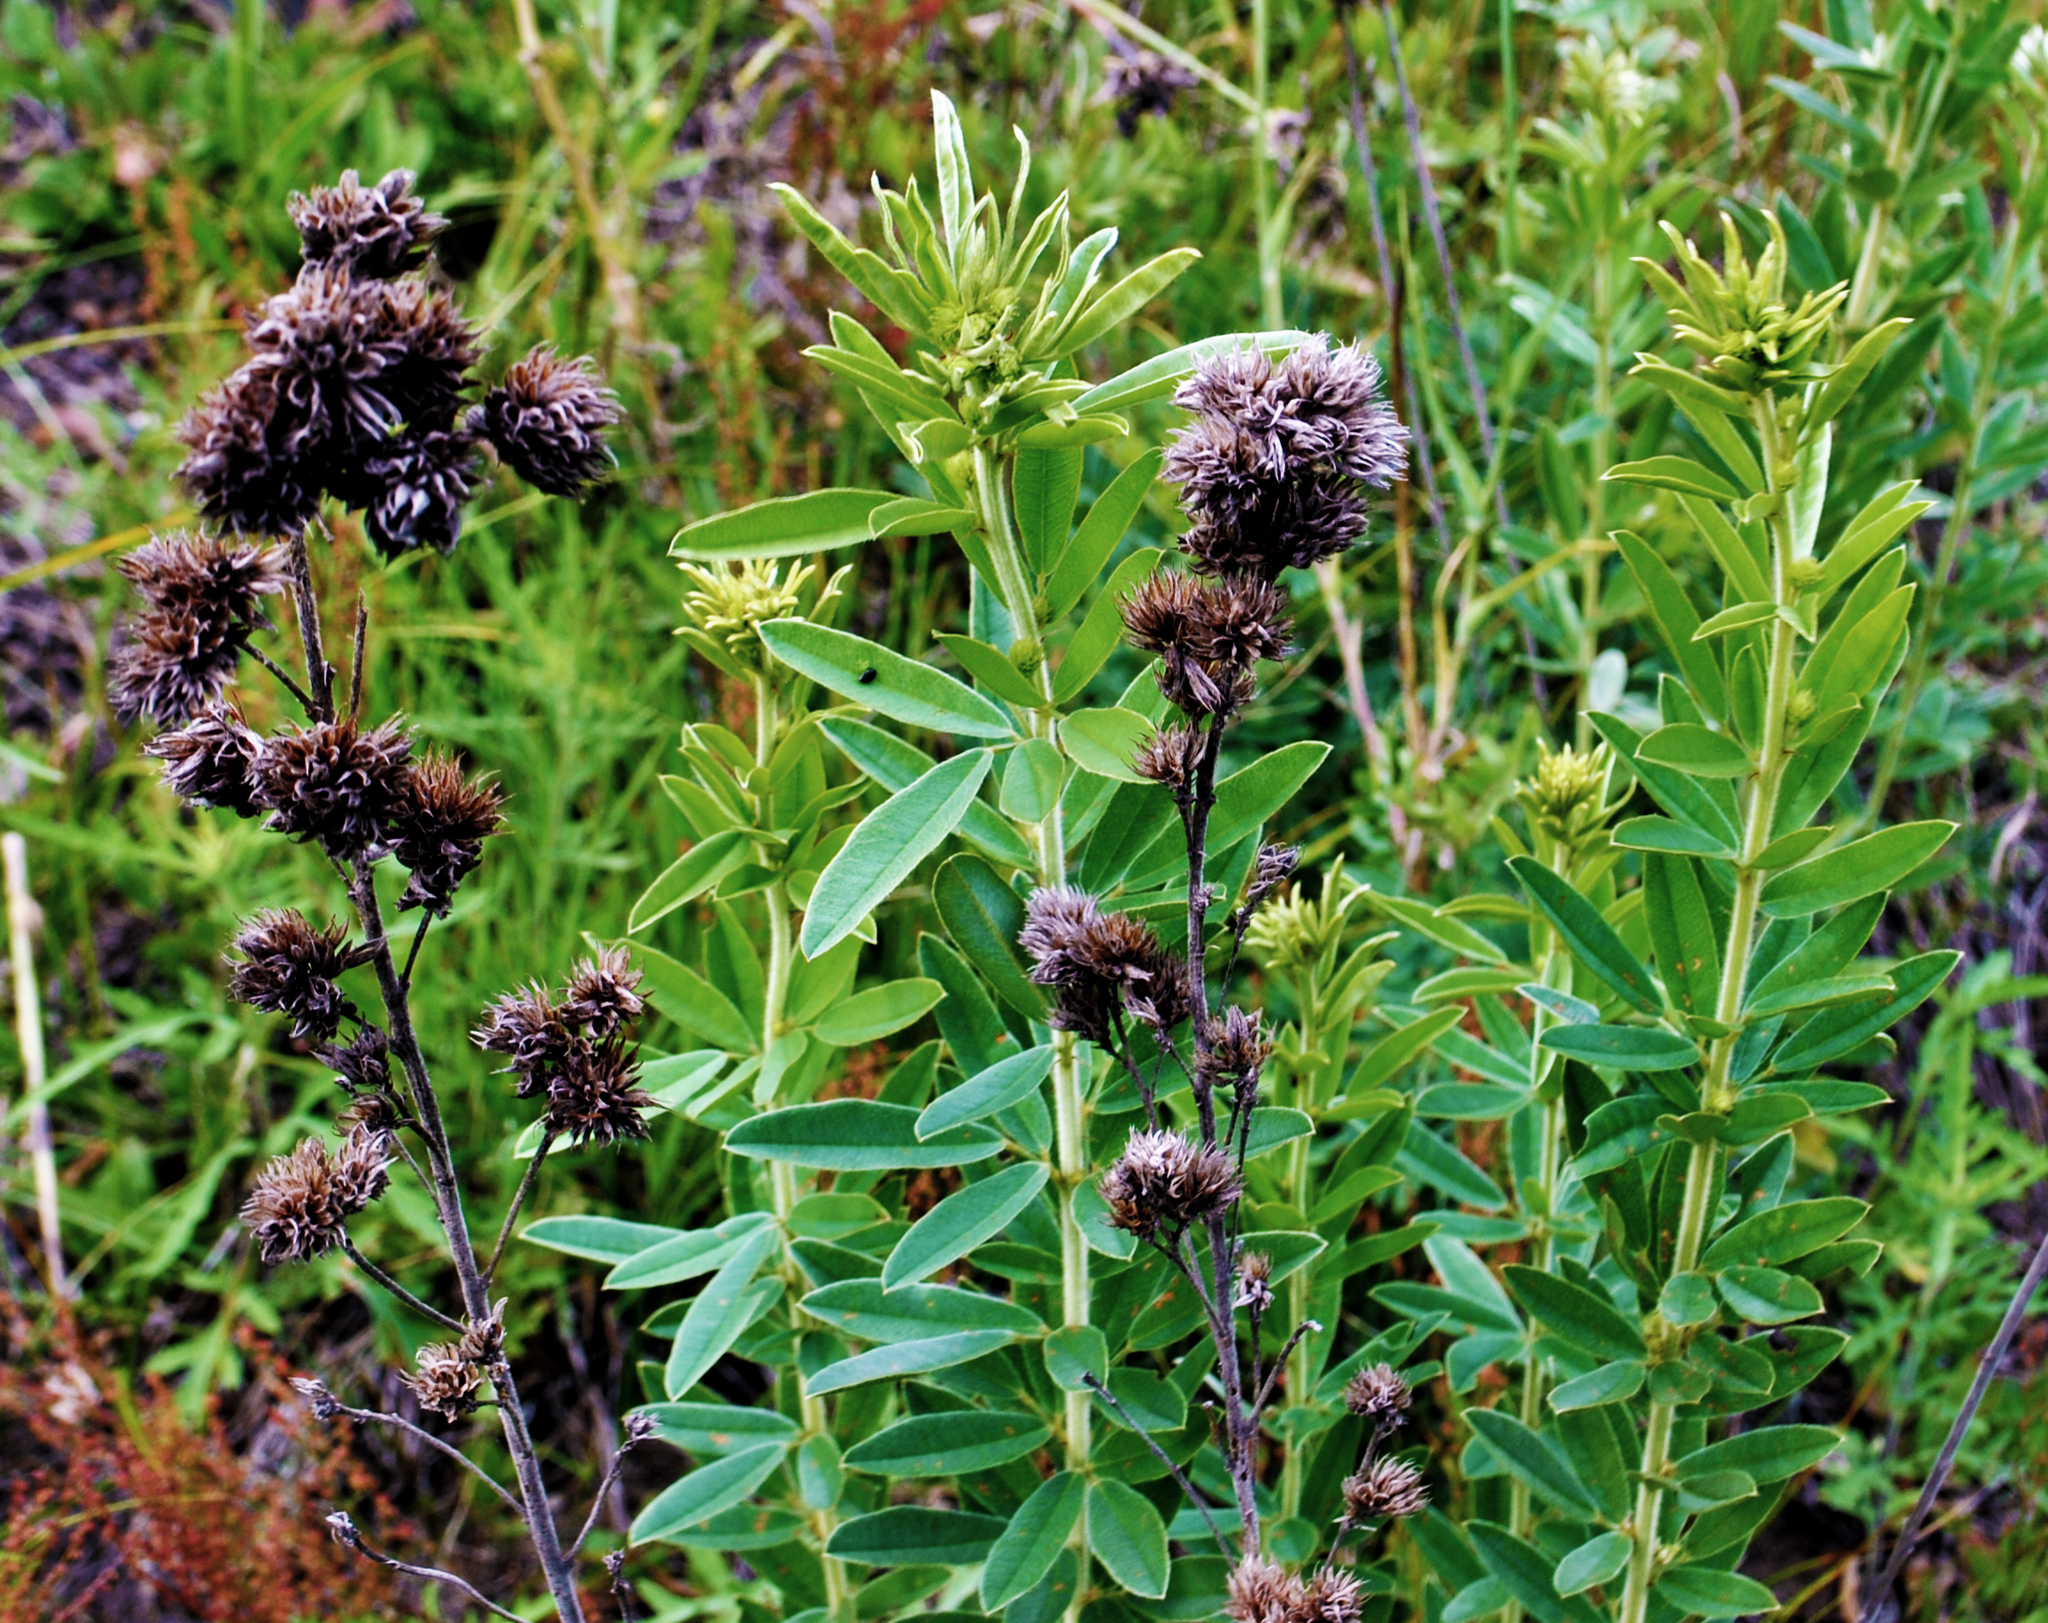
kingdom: Plantae
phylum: Tracheophyta
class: Magnoliopsida
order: Fabales
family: Fabaceae
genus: Lespedeza
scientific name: Lespedeza capitata
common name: Dusty clover
